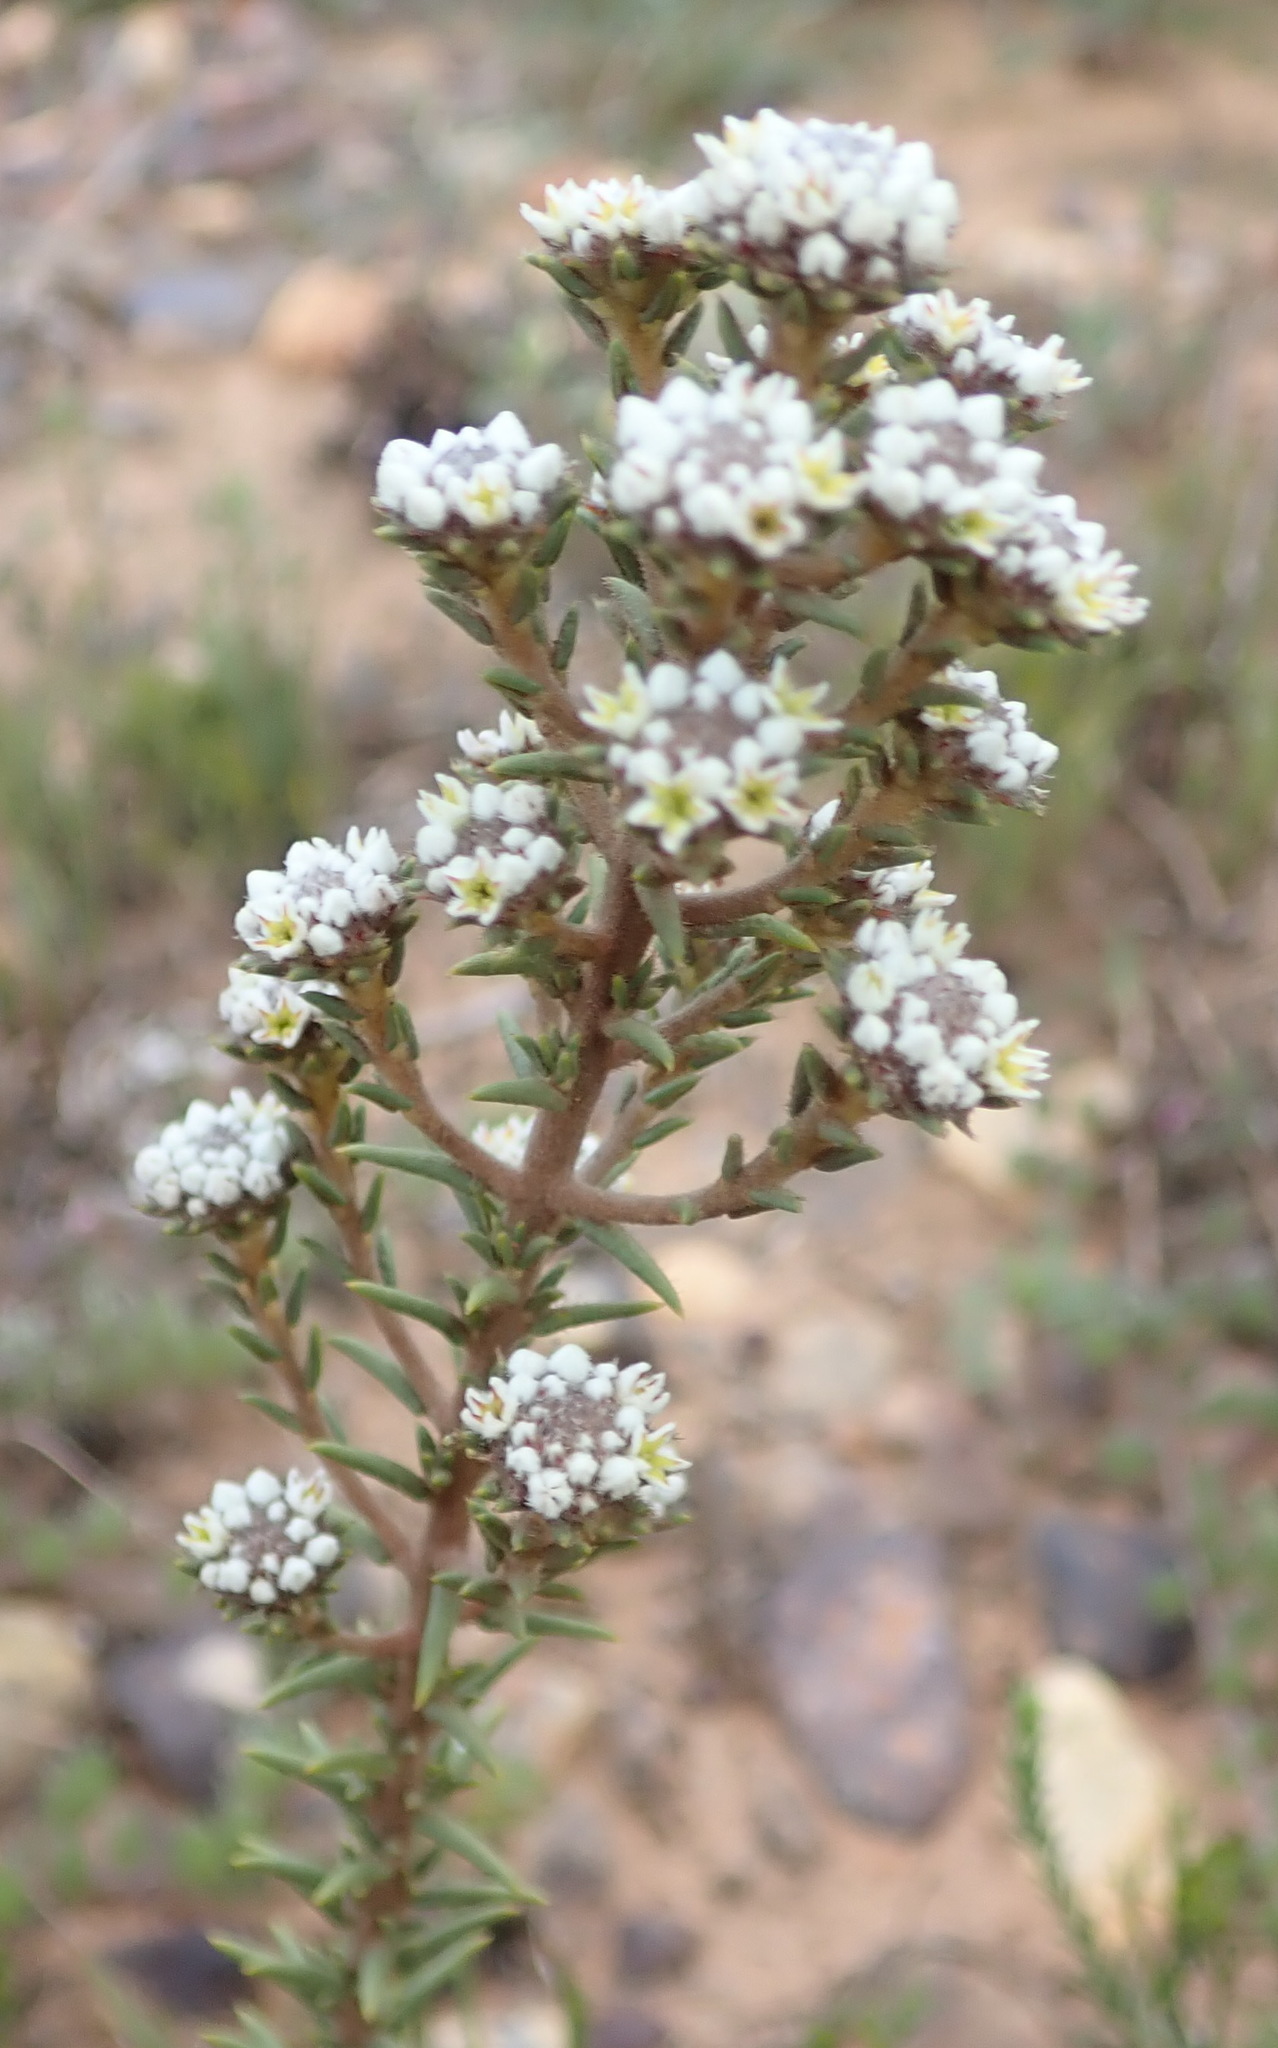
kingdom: Plantae
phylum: Tracheophyta
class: Magnoliopsida
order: Rosales
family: Rhamnaceae
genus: Phylica
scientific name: Phylica propinqua
